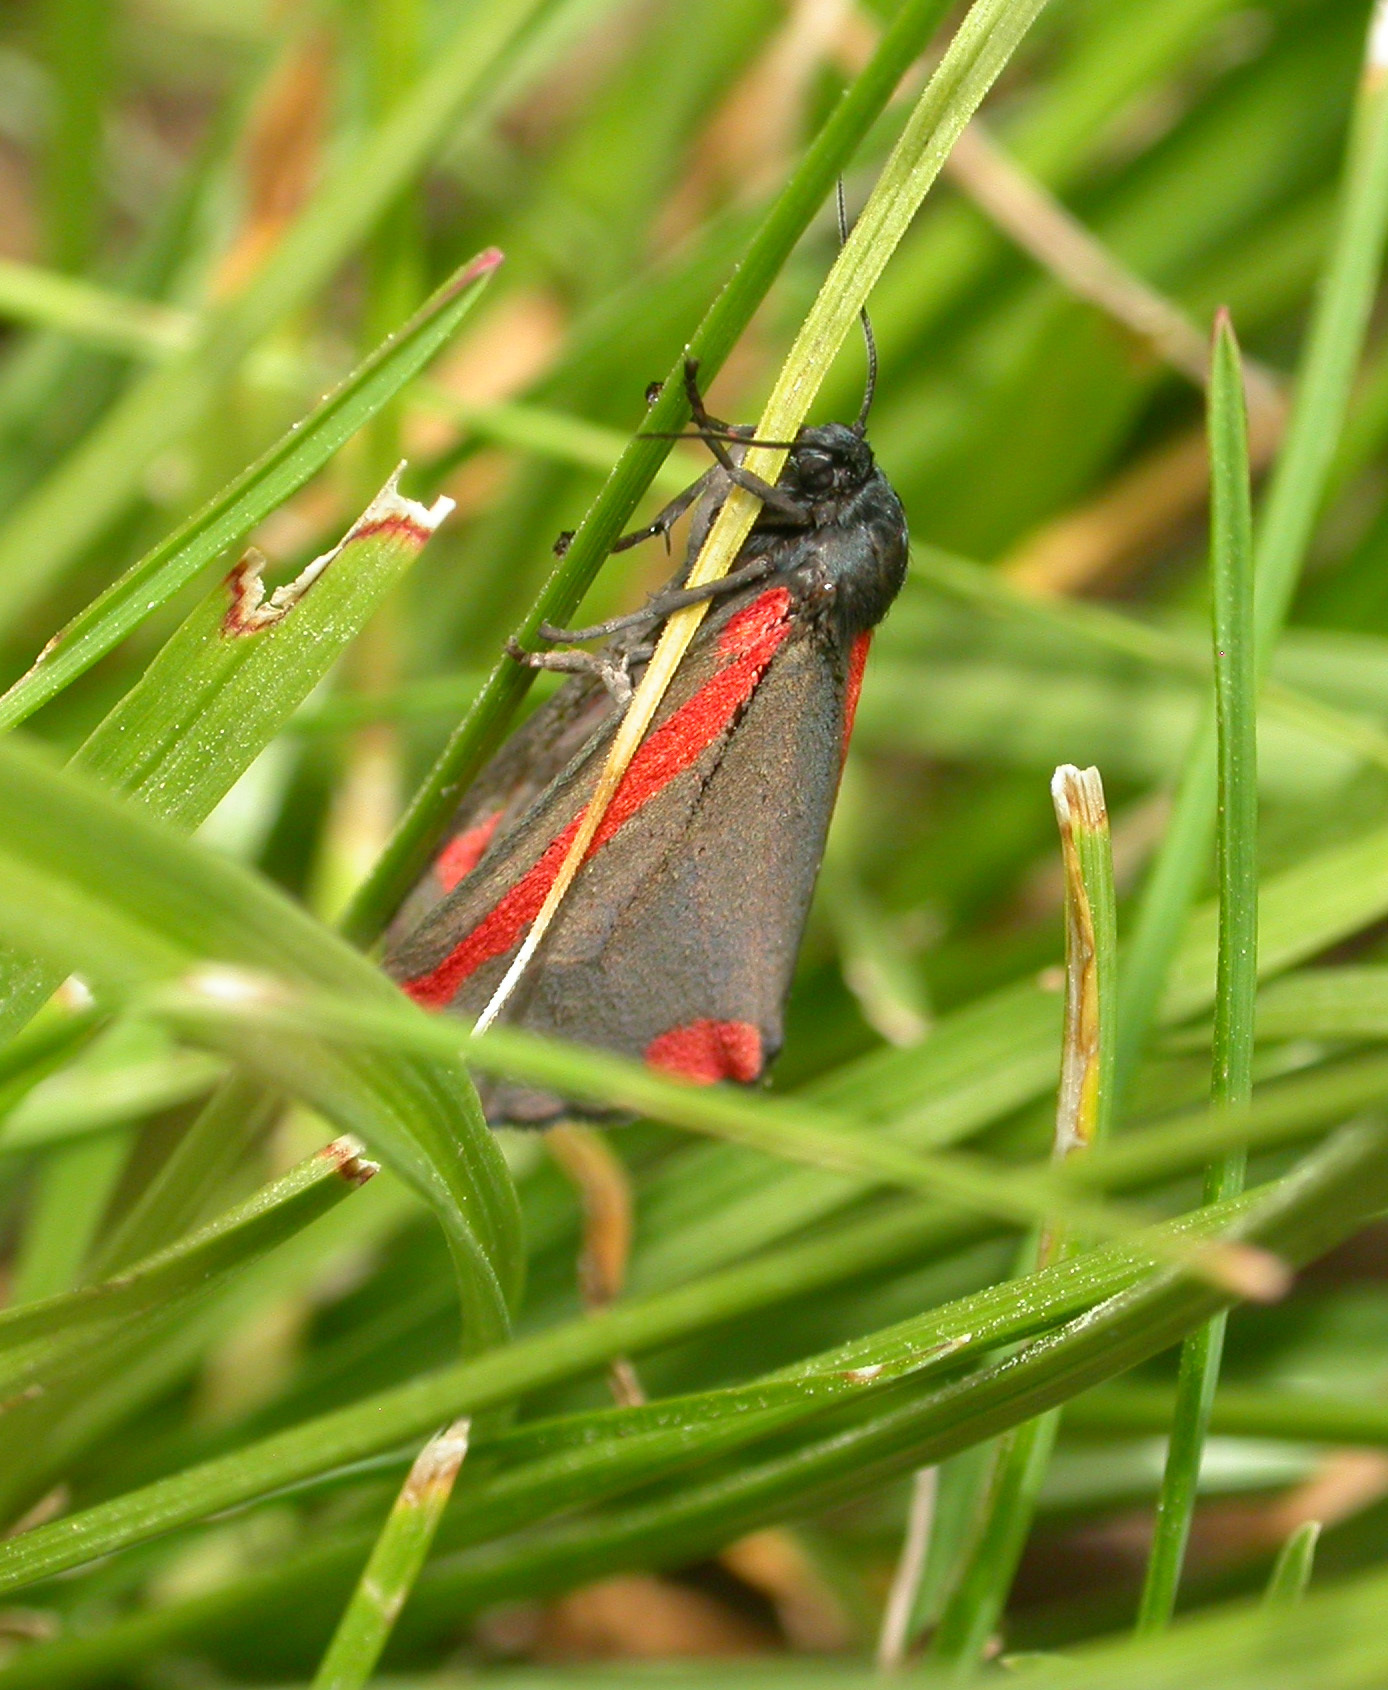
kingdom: Animalia
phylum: Arthropoda
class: Insecta
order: Lepidoptera
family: Erebidae
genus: Tyria
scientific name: Tyria jacobaeae
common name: Cinnabar
